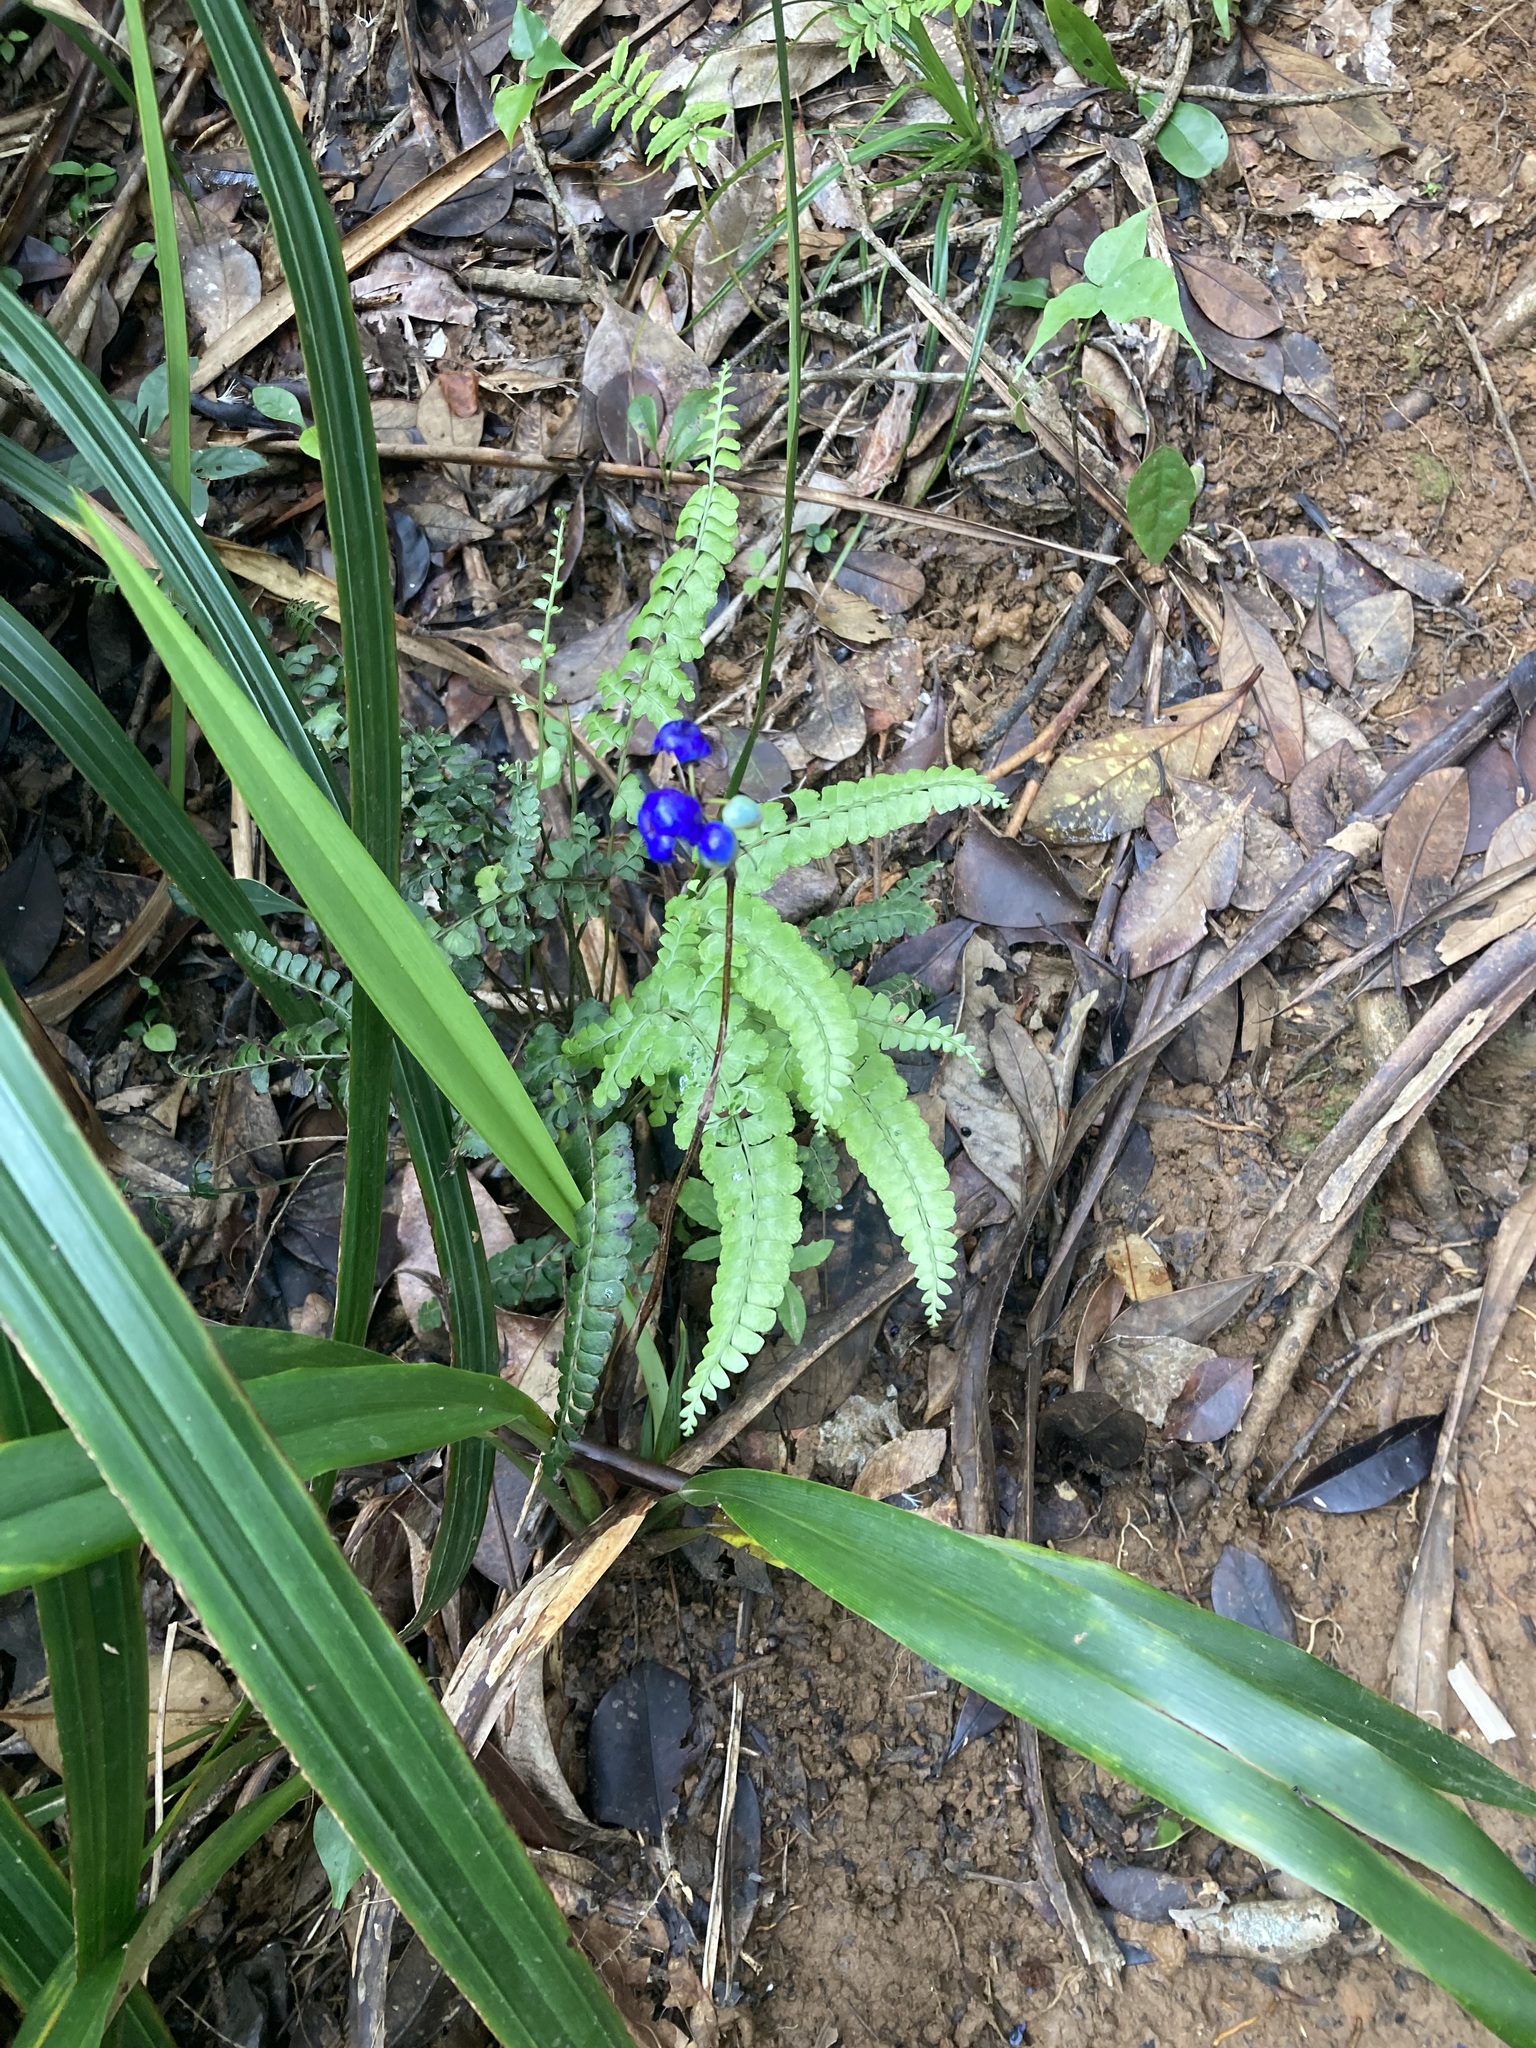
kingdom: Plantae
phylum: Tracheophyta
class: Liliopsida
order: Asparagales
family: Asphodelaceae
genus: Dianella
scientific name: Dianella ensifolia
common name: New zealand lilyplant
